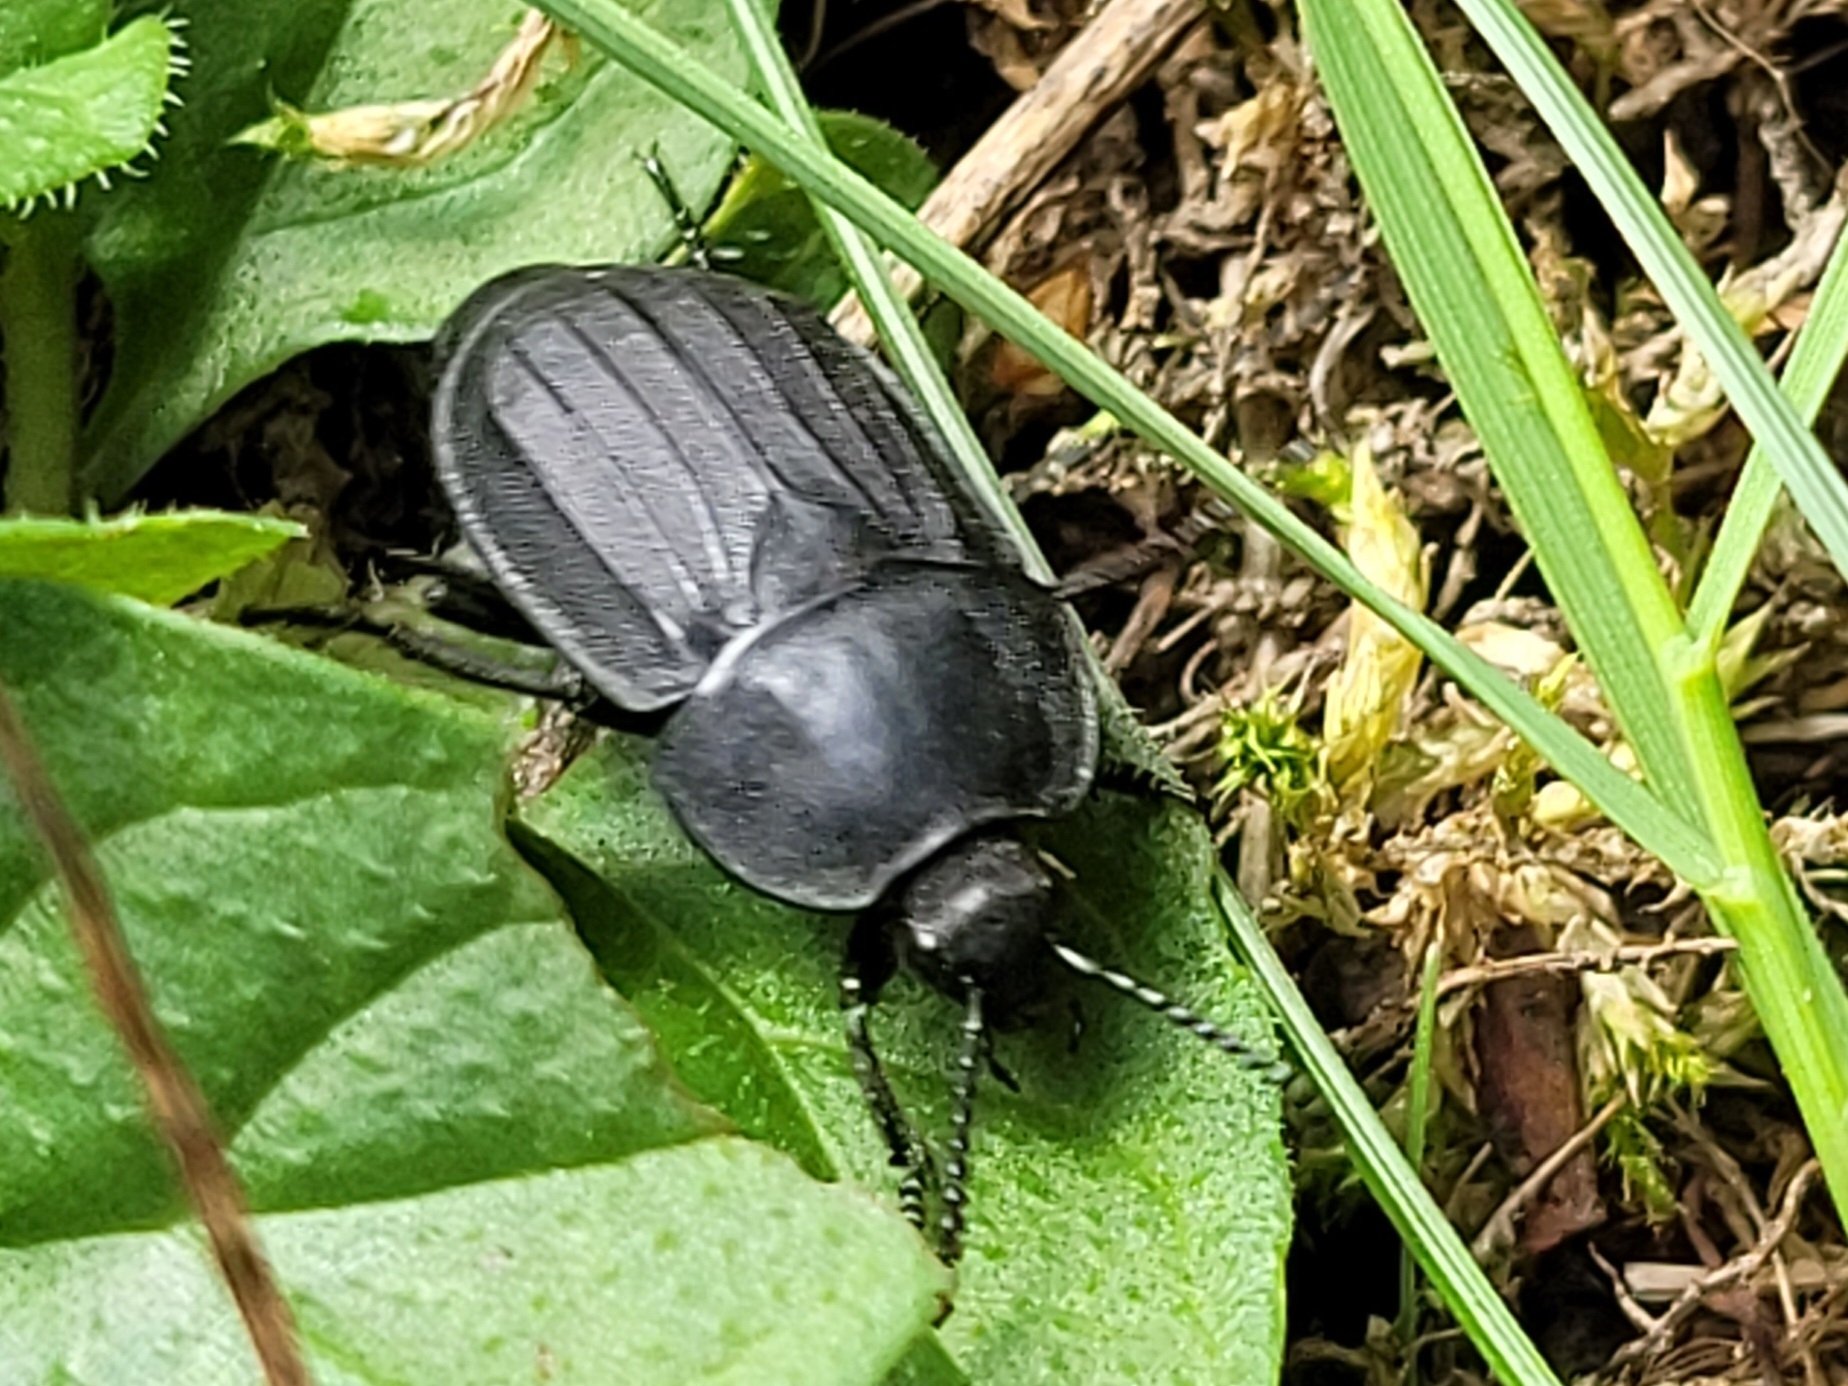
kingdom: Animalia
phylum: Arthropoda
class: Insecta
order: Coleoptera
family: Staphylinidae
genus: Silpha
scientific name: Silpha tristis
